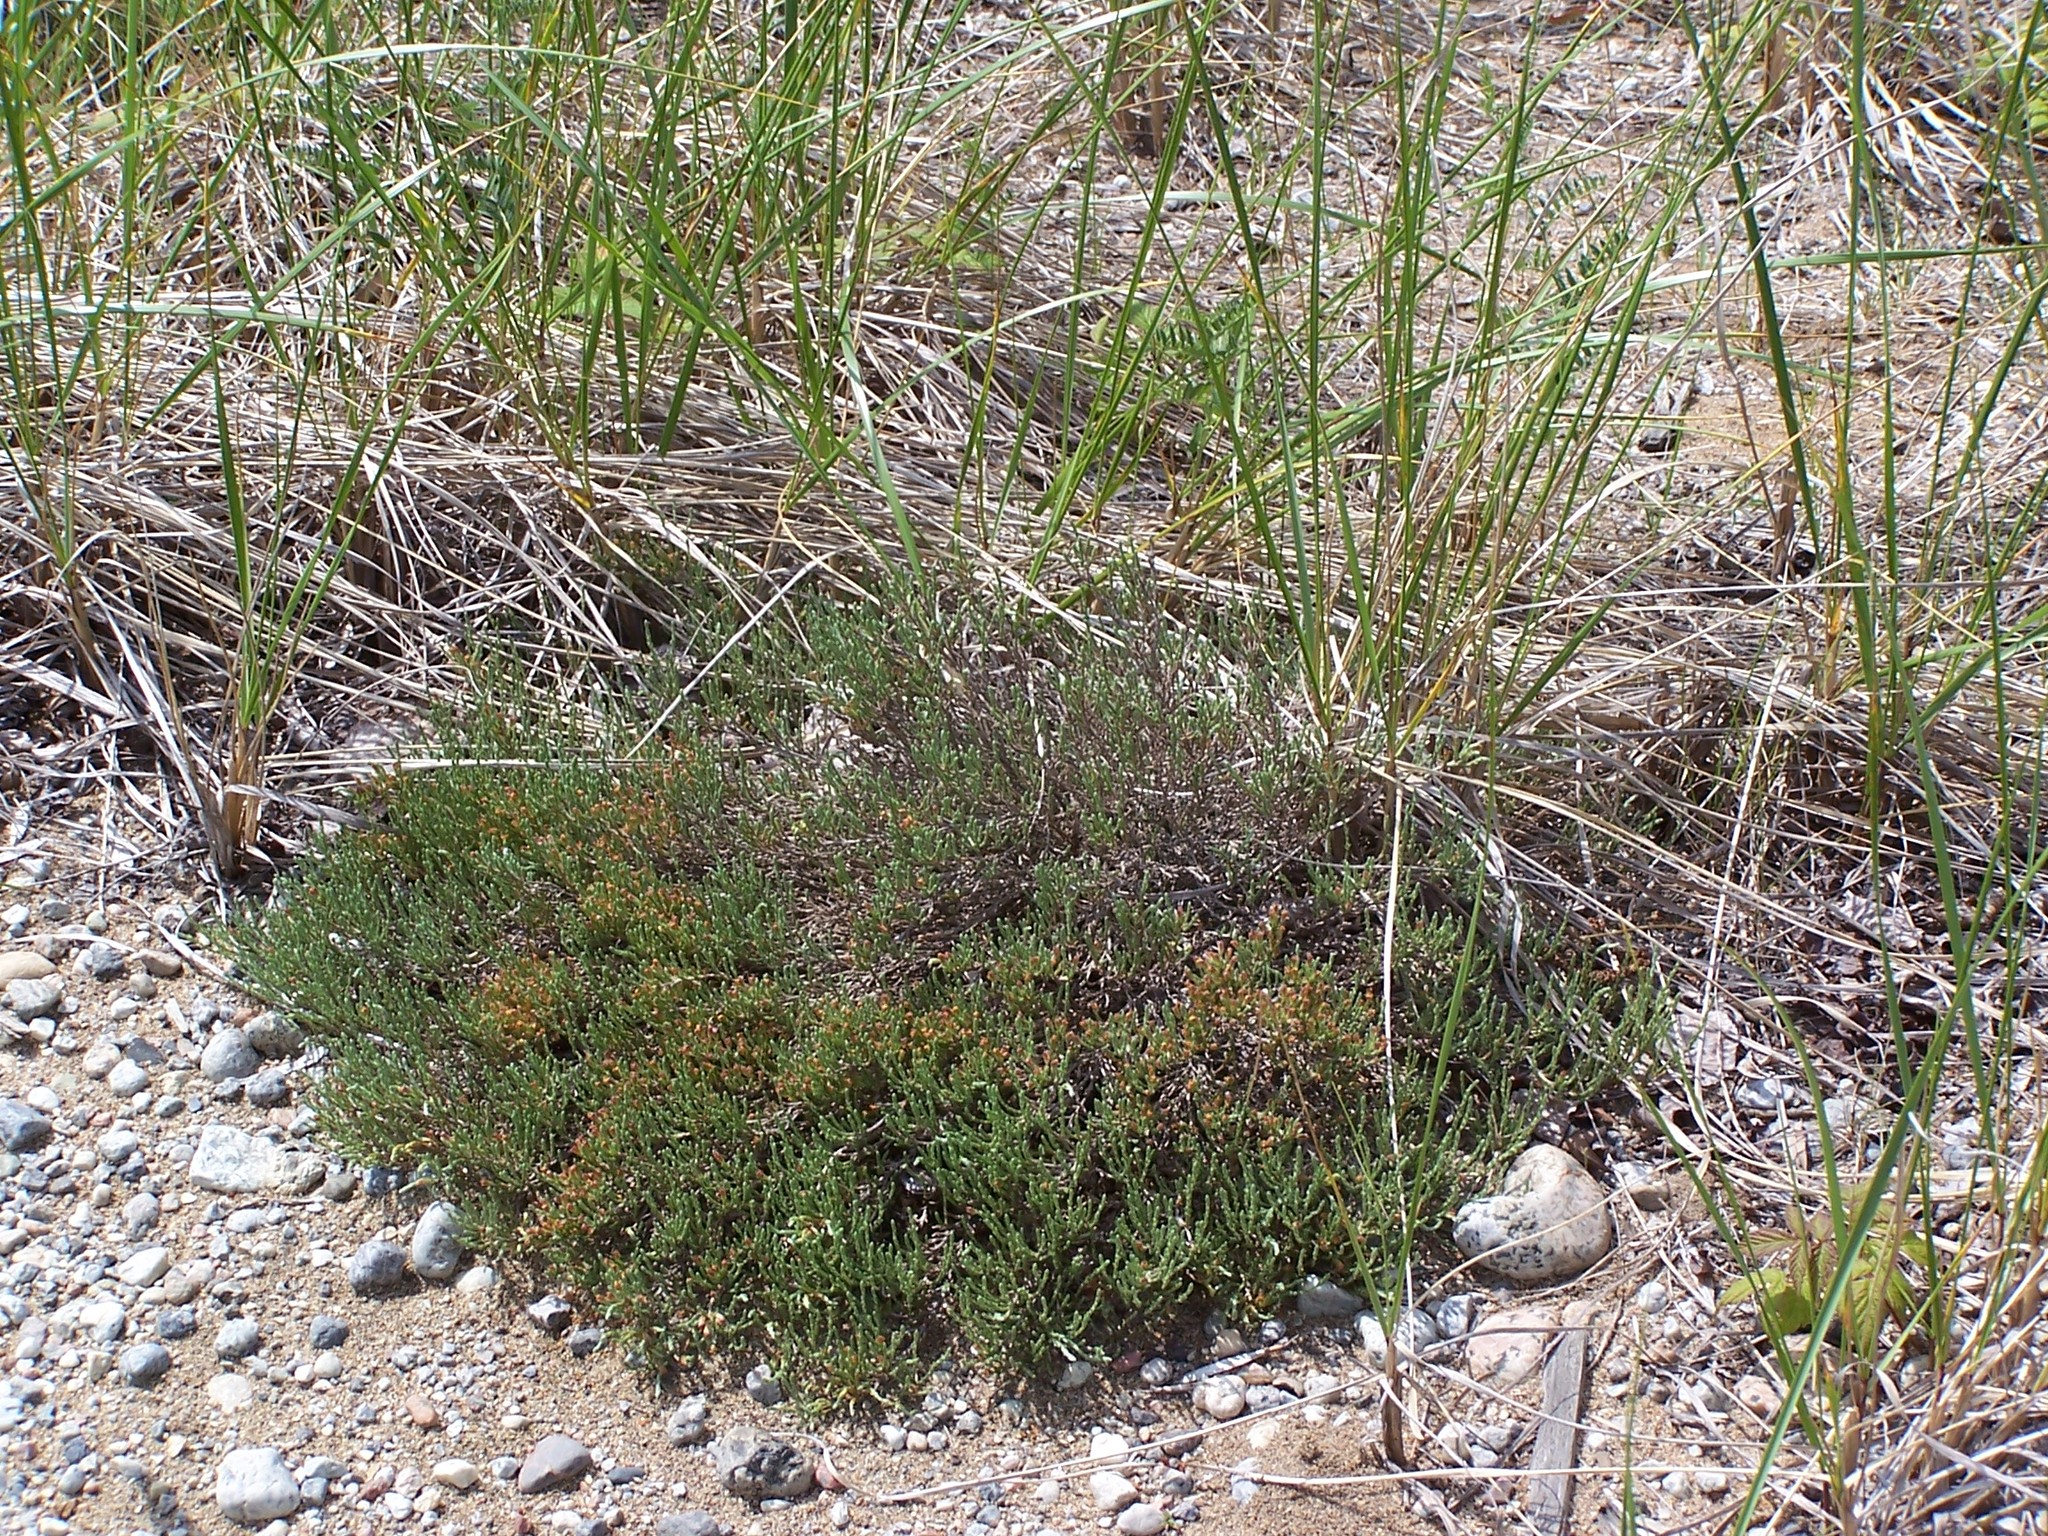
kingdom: Plantae
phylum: Tracheophyta
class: Magnoliopsida
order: Malvales
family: Cistaceae
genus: Hudsonia
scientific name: Hudsonia tomentosa
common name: Beach-heath
